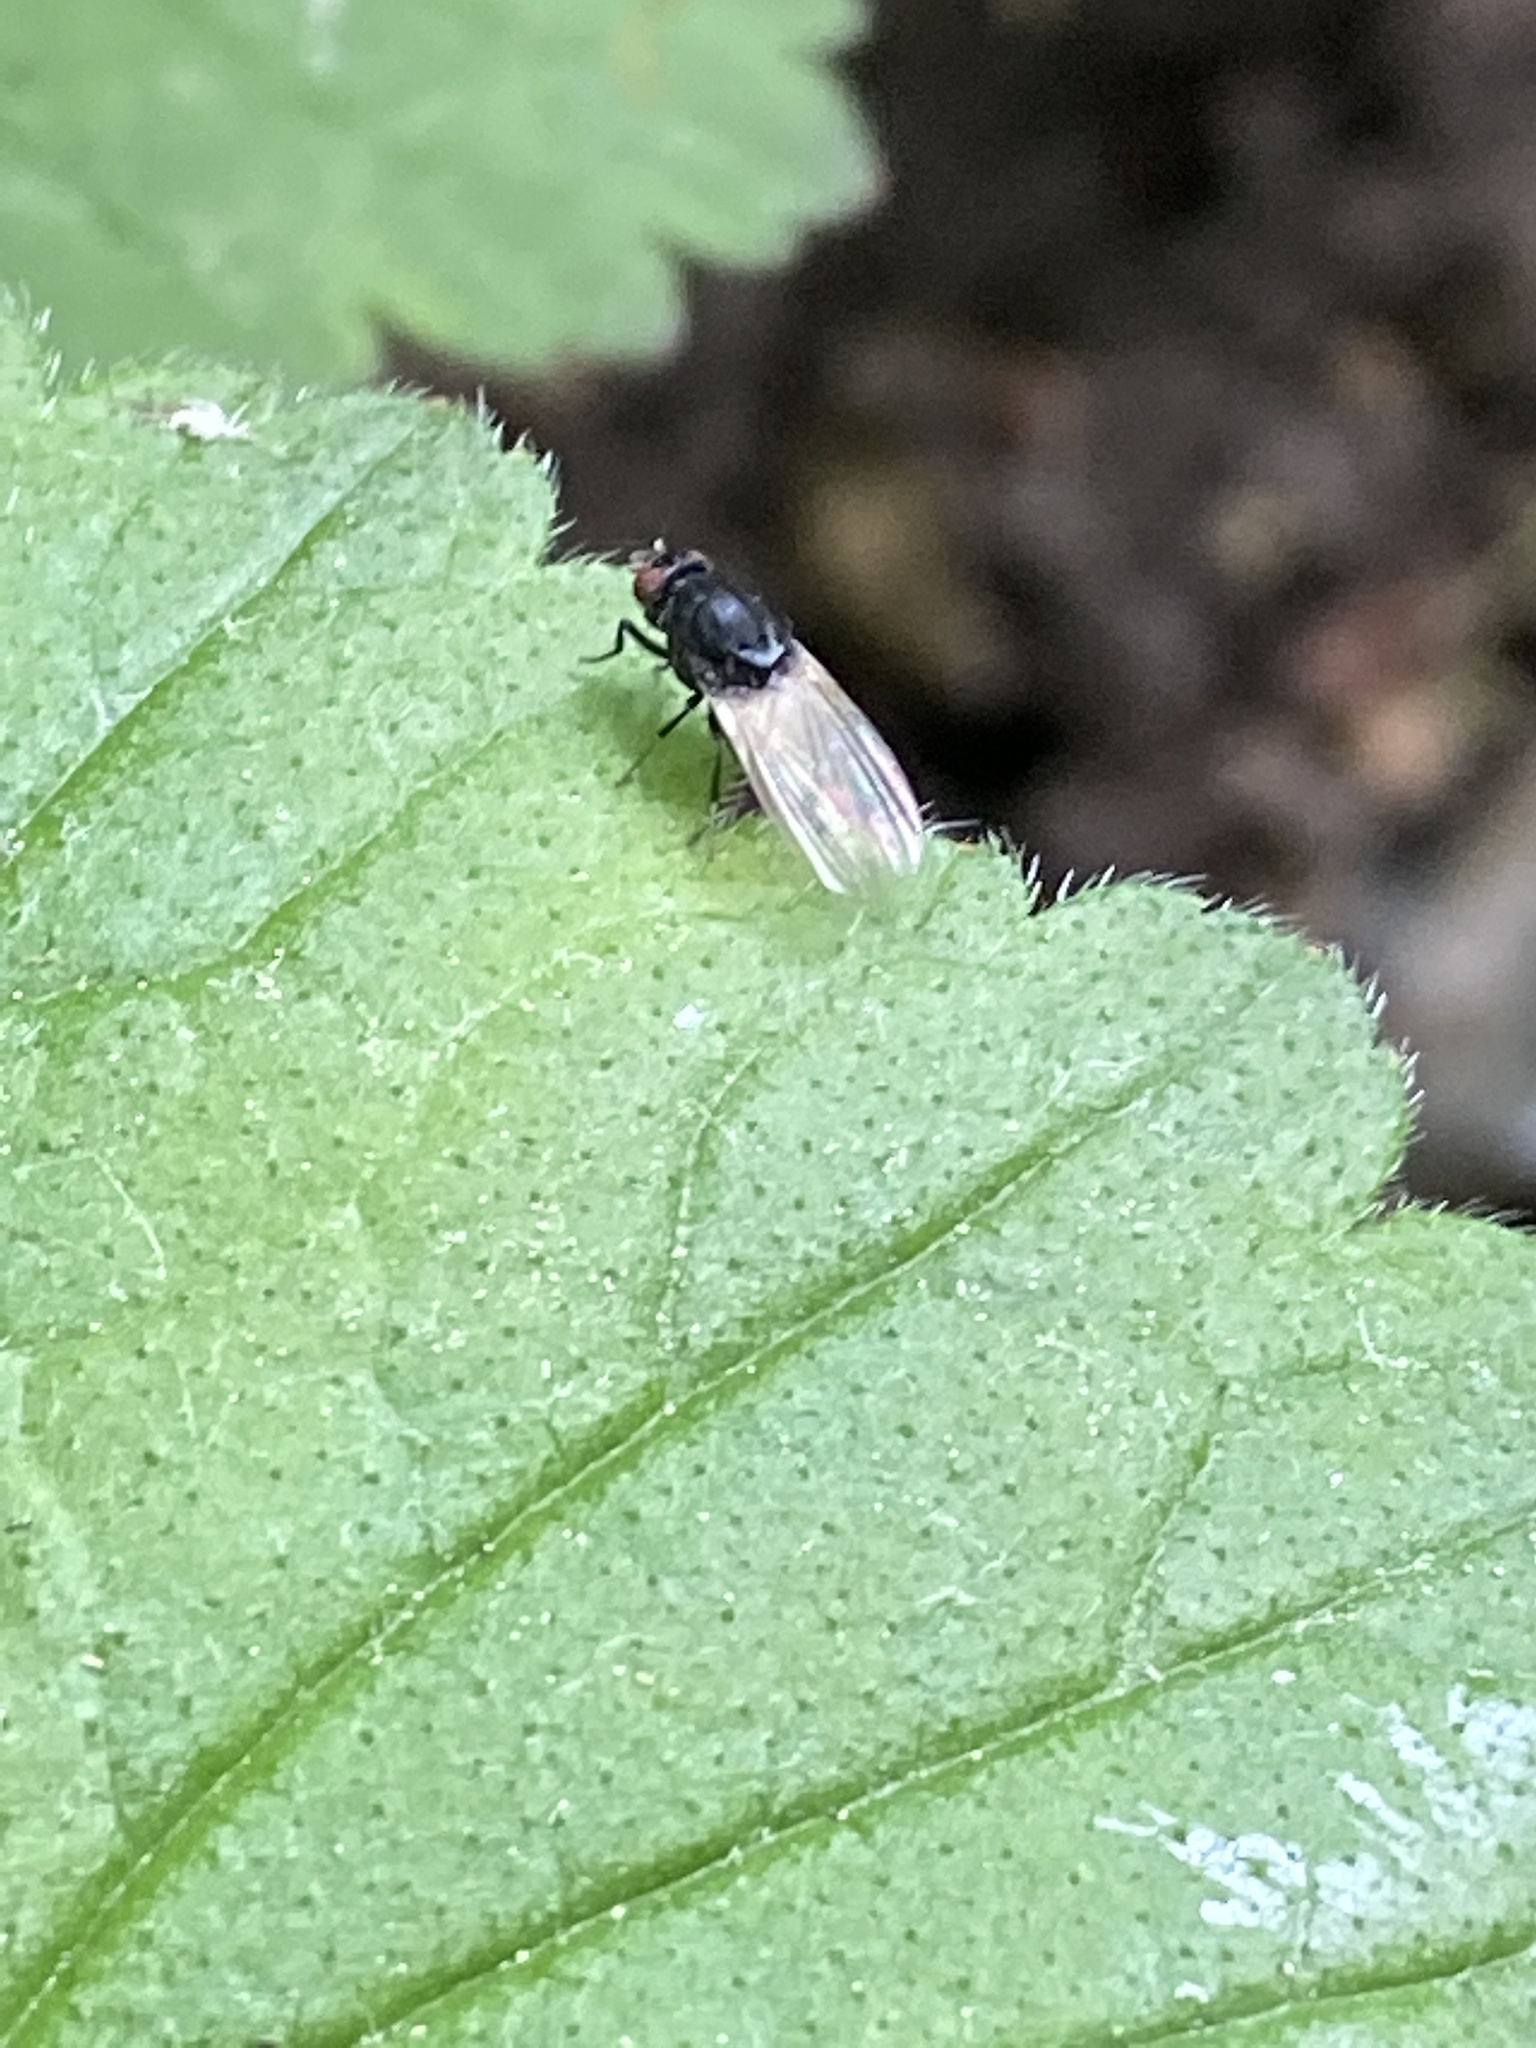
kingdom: Animalia
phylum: Arthropoda
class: Insecta
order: Diptera
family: Lauxaniidae
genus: Minettia
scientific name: Minettia longipennis
